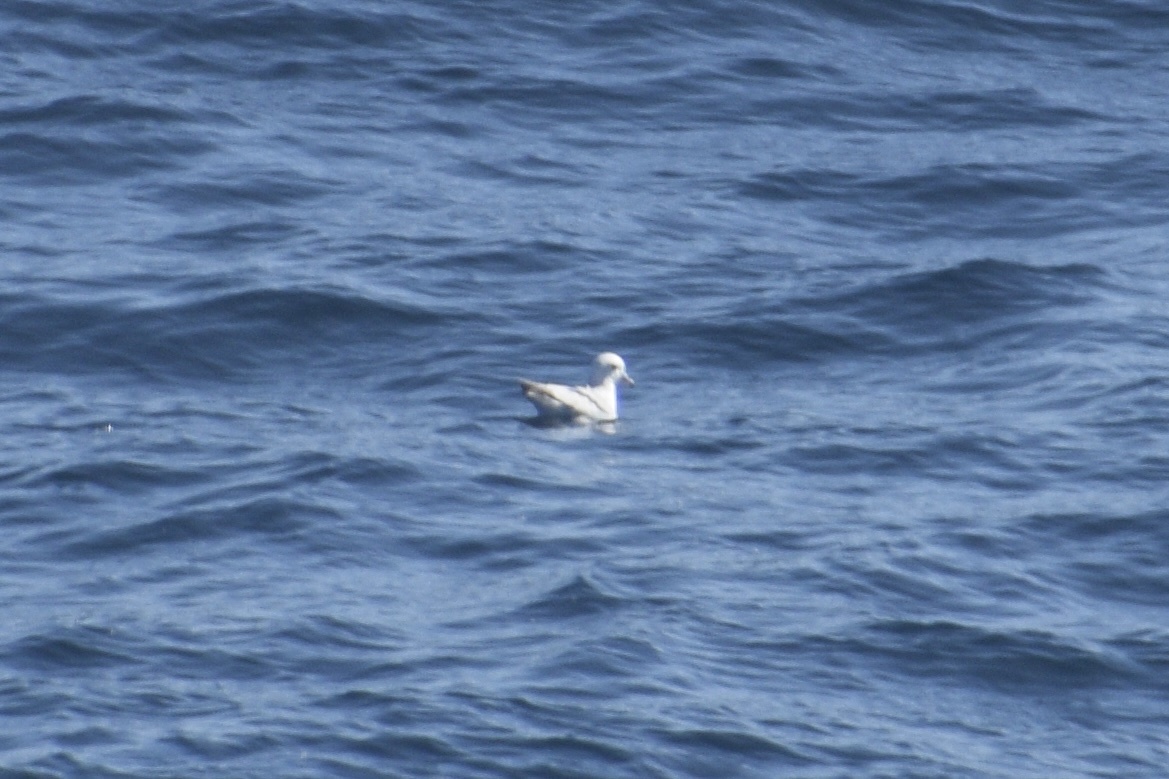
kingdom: Animalia
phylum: Chordata
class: Aves
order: Procellariiformes
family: Procellariidae
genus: Fulmarus
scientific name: Fulmarus glacialoides
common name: Southern fulmar
